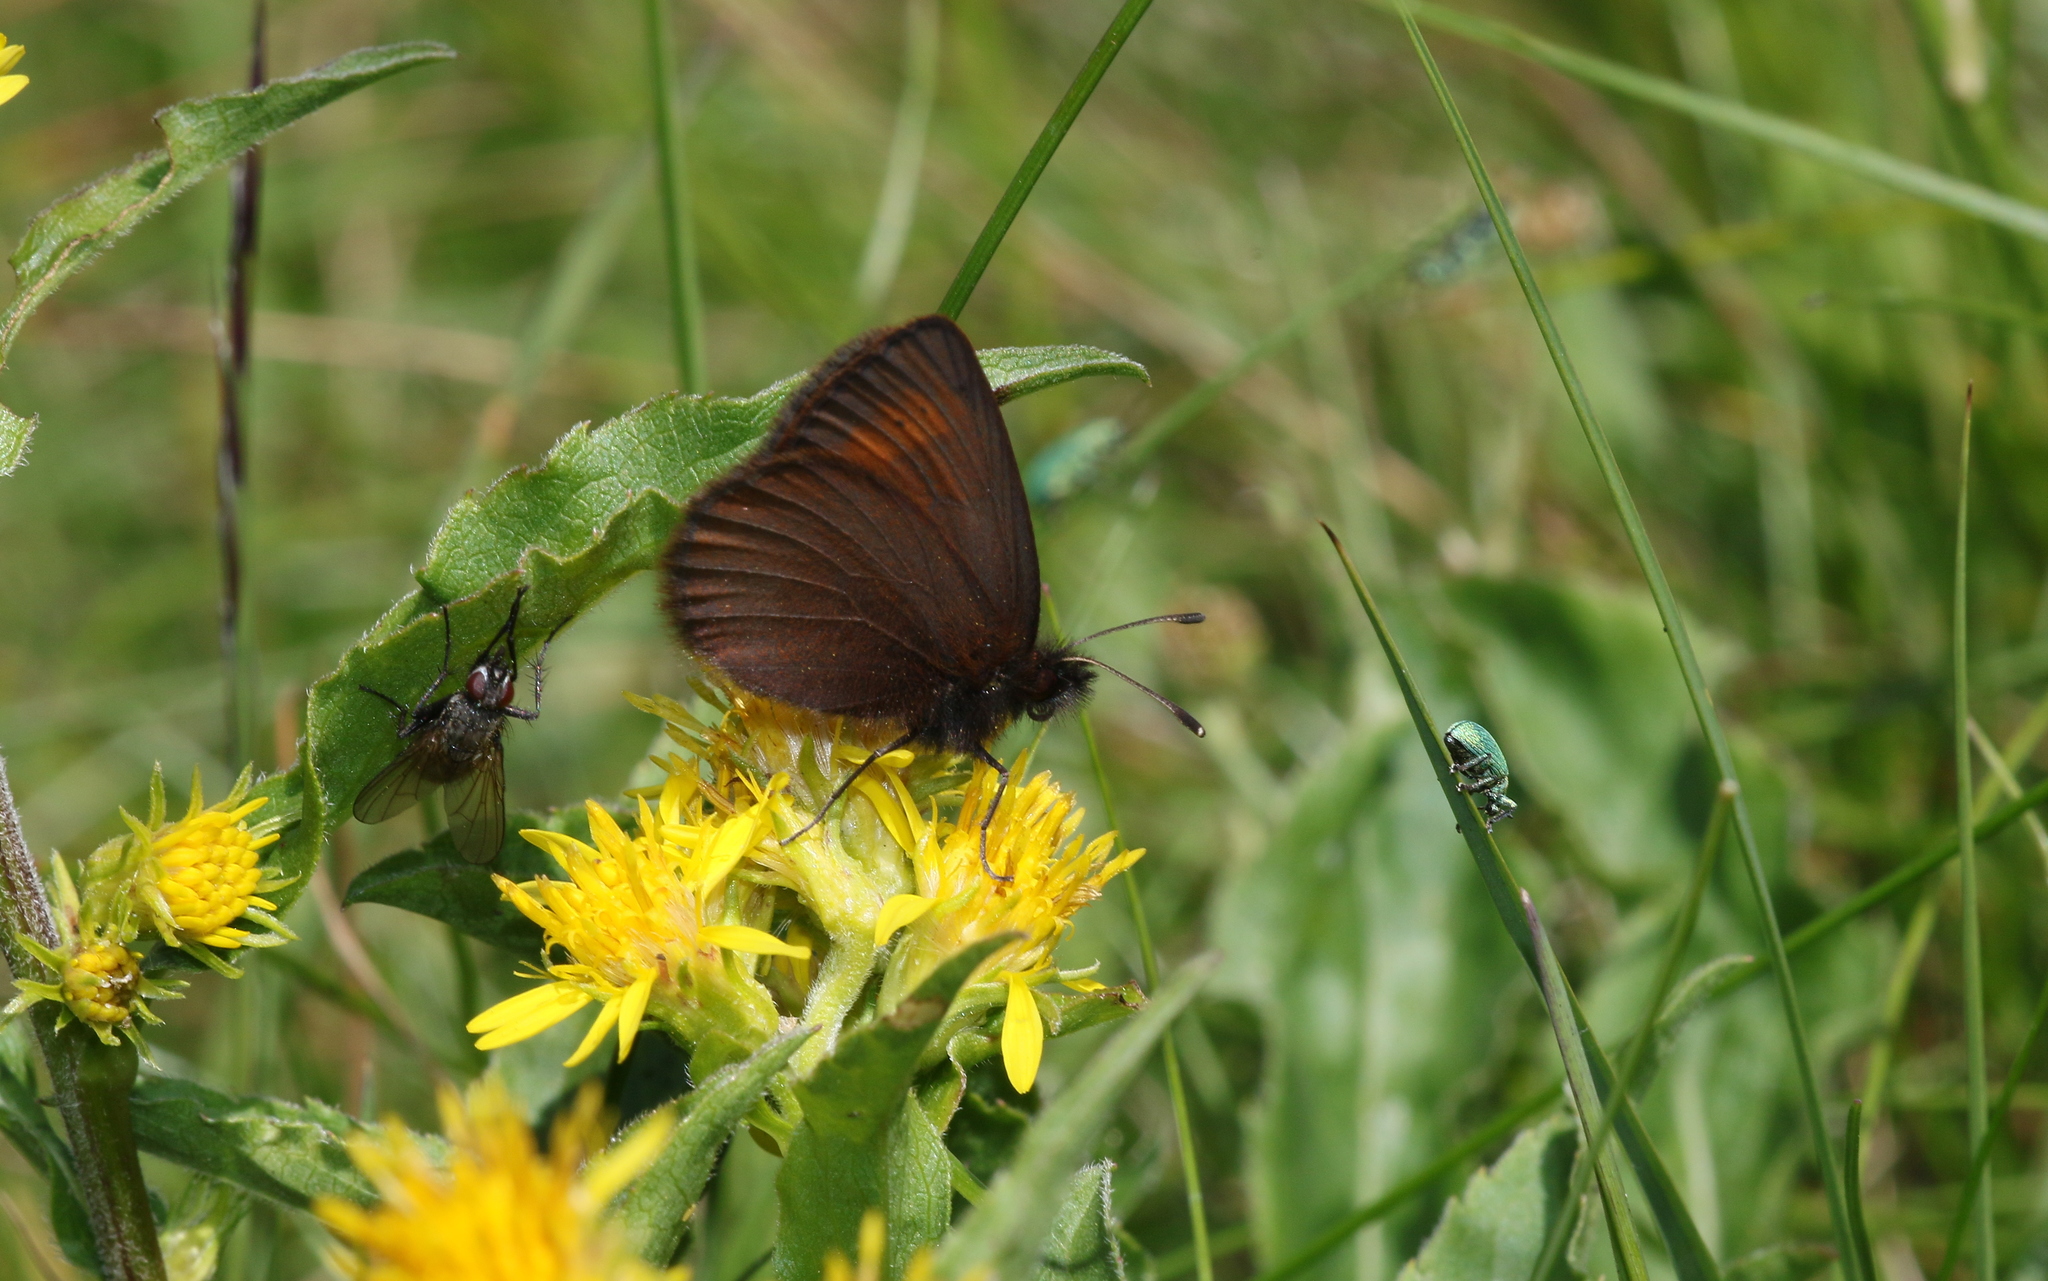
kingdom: Animalia
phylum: Arthropoda
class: Insecta
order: Lepidoptera
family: Nymphalidae
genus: Erebia
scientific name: Erebia epiphron
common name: Mountain ringlet
